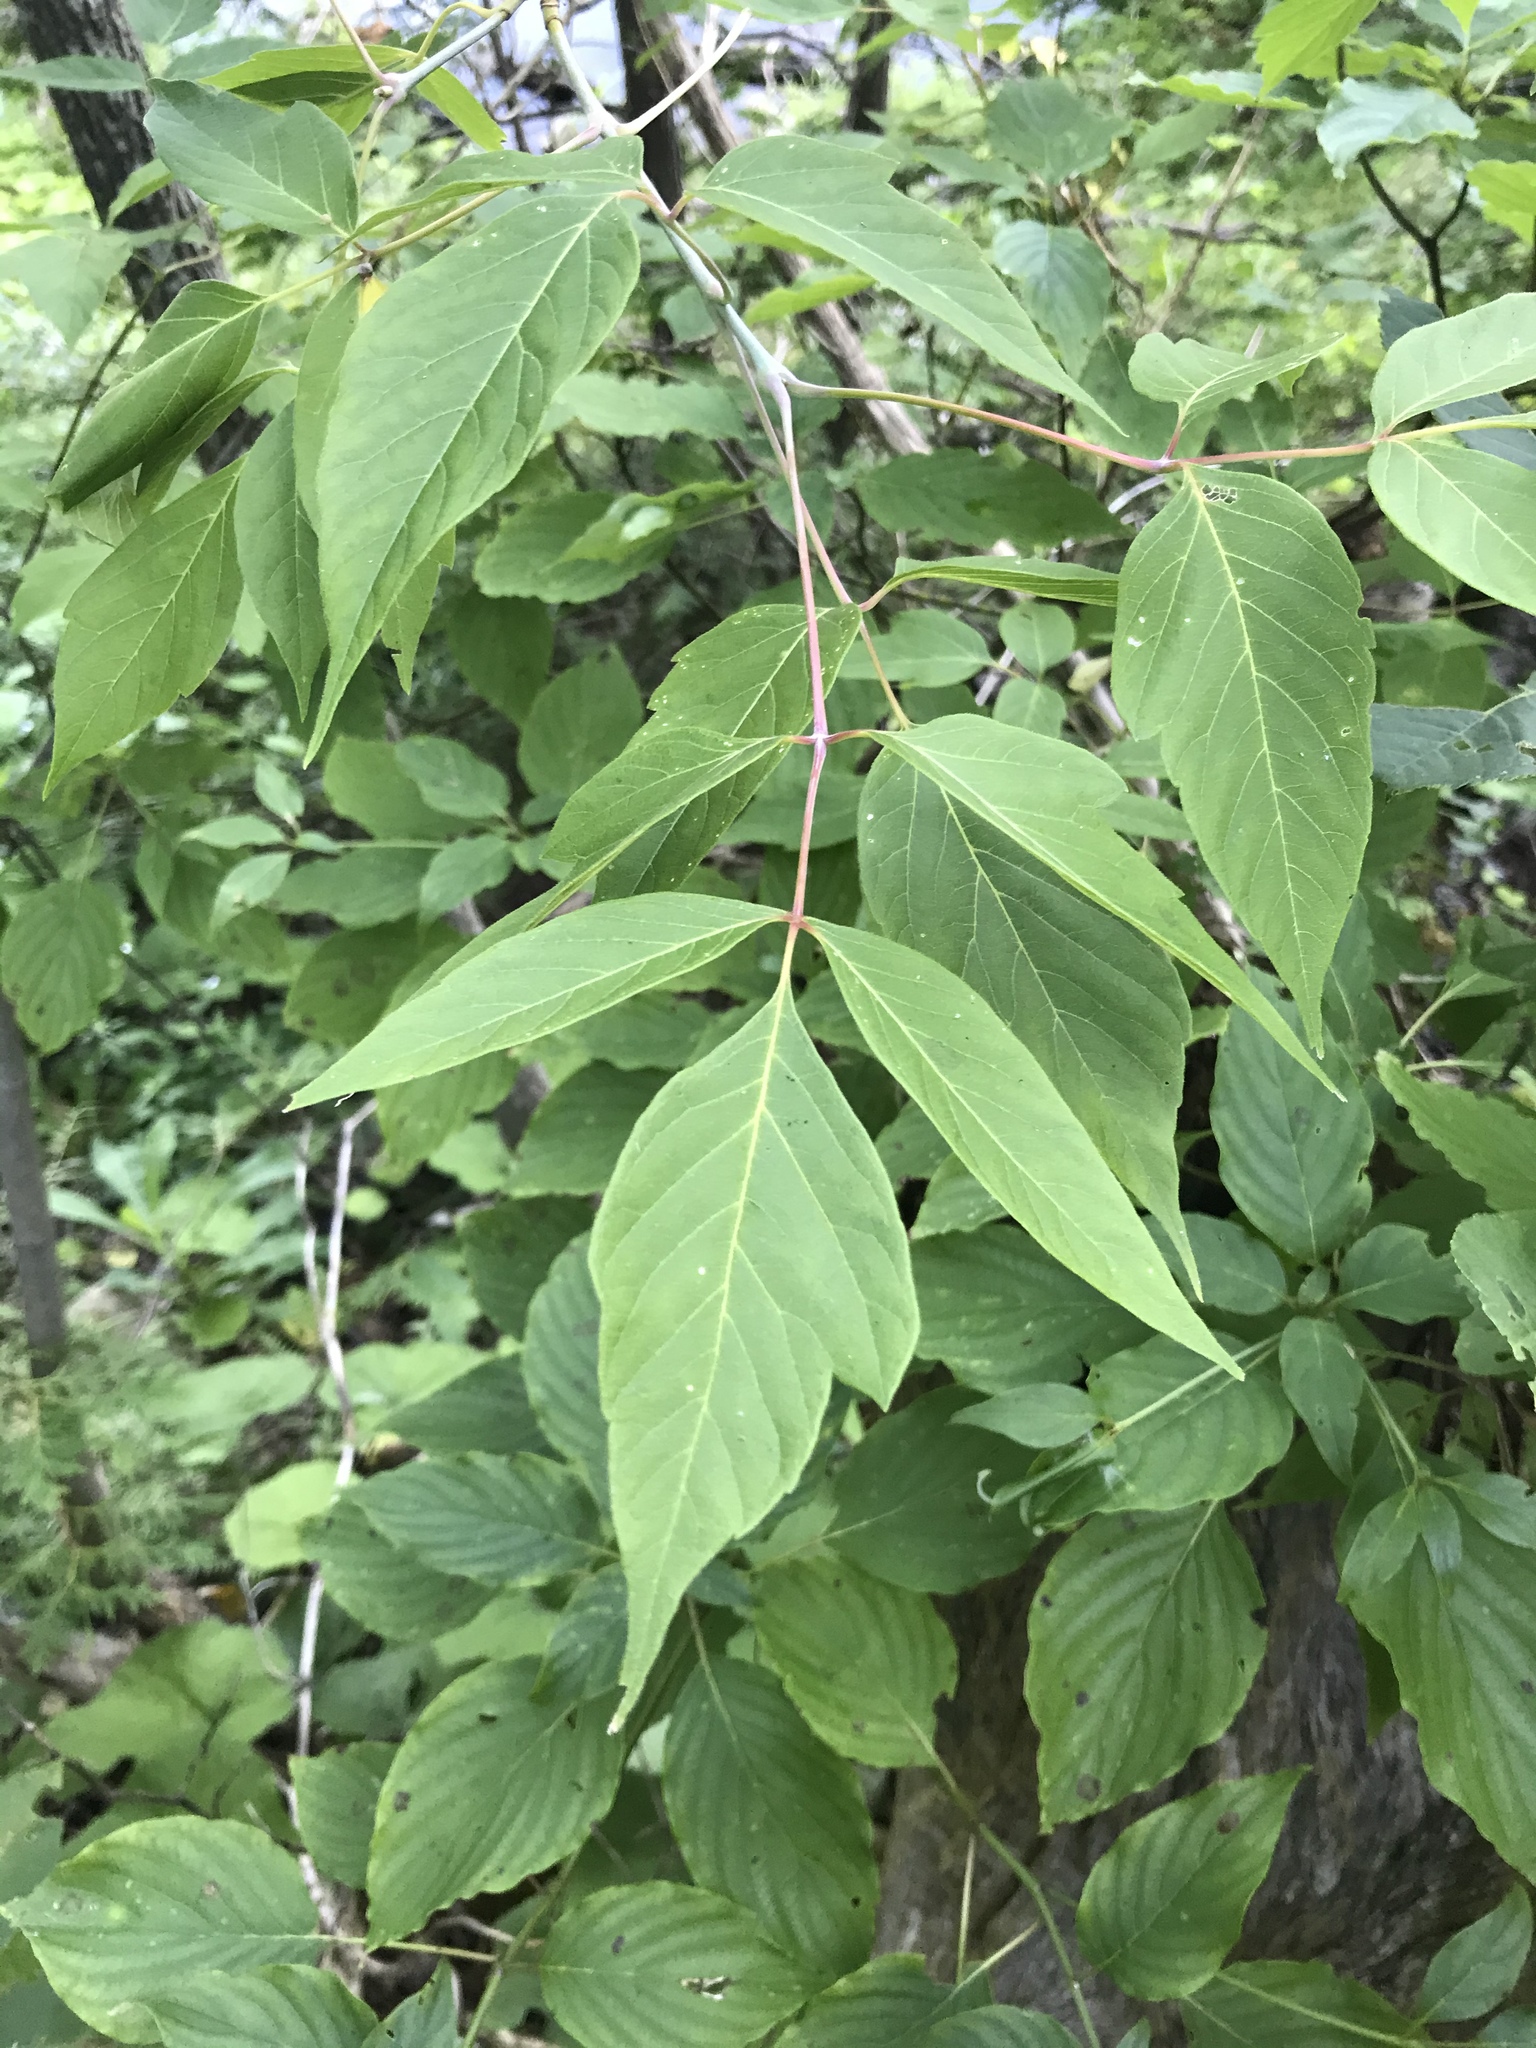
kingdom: Plantae
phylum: Tracheophyta
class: Magnoliopsida
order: Sapindales
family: Sapindaceae
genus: Acer
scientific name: Acer negundo
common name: Ashleaf maple
